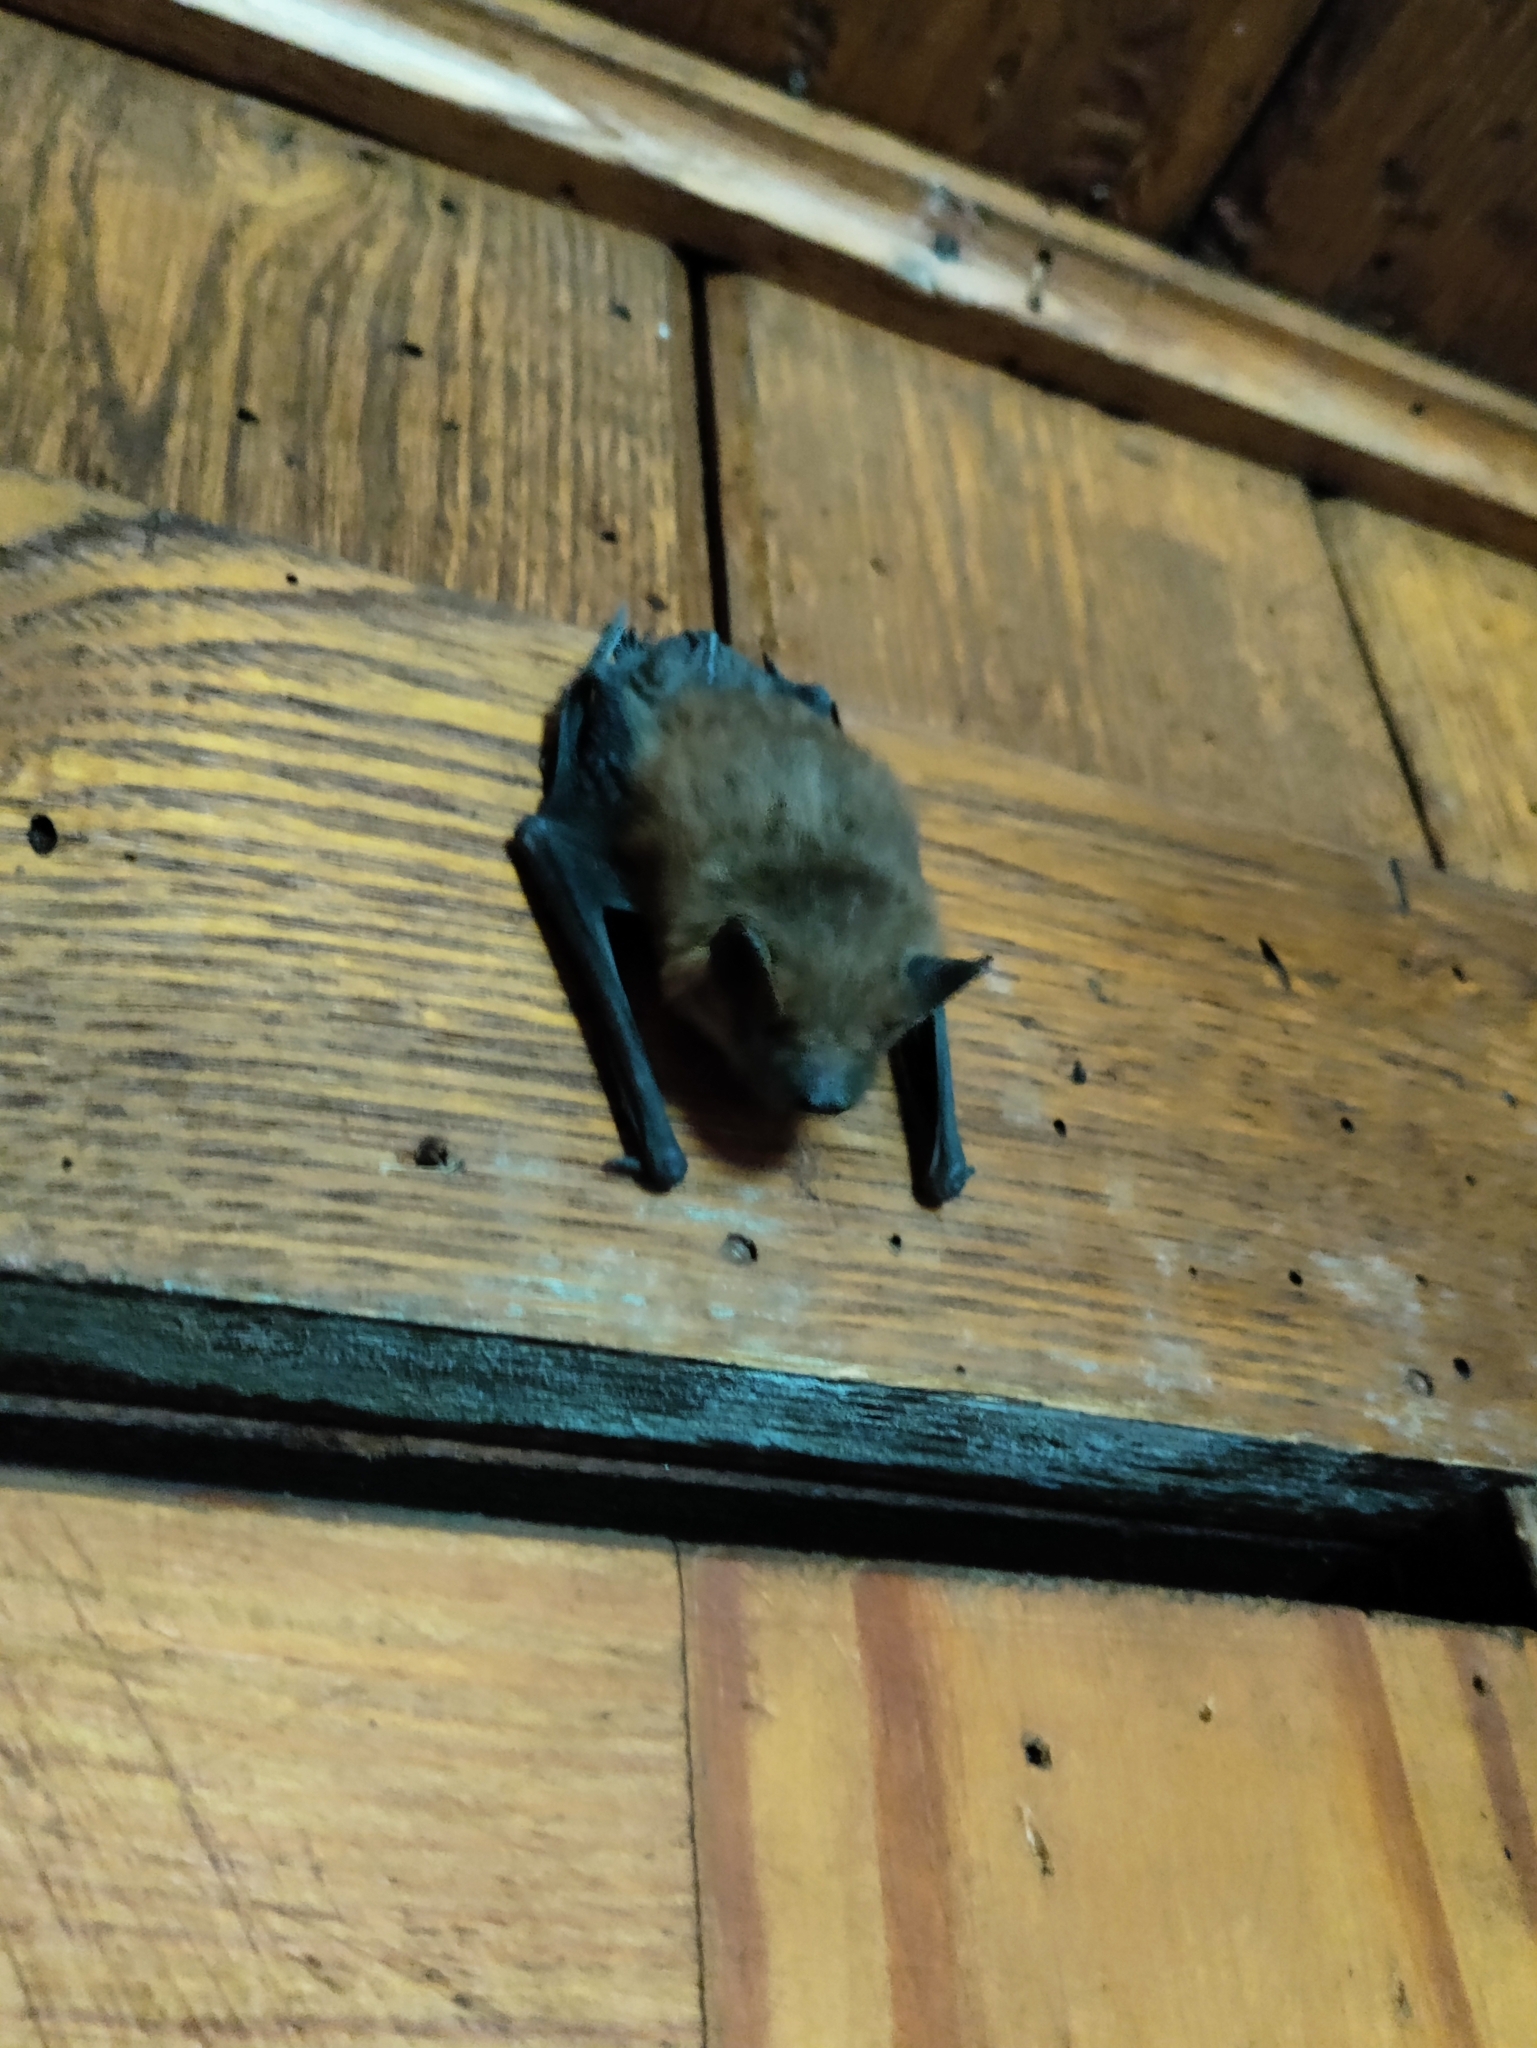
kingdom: Animalia
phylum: Chordata
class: Mammalia
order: Chiroptera
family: Vespertilionidae
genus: Eptesicus
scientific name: Eptesicus fuscus
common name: Big brown bat
